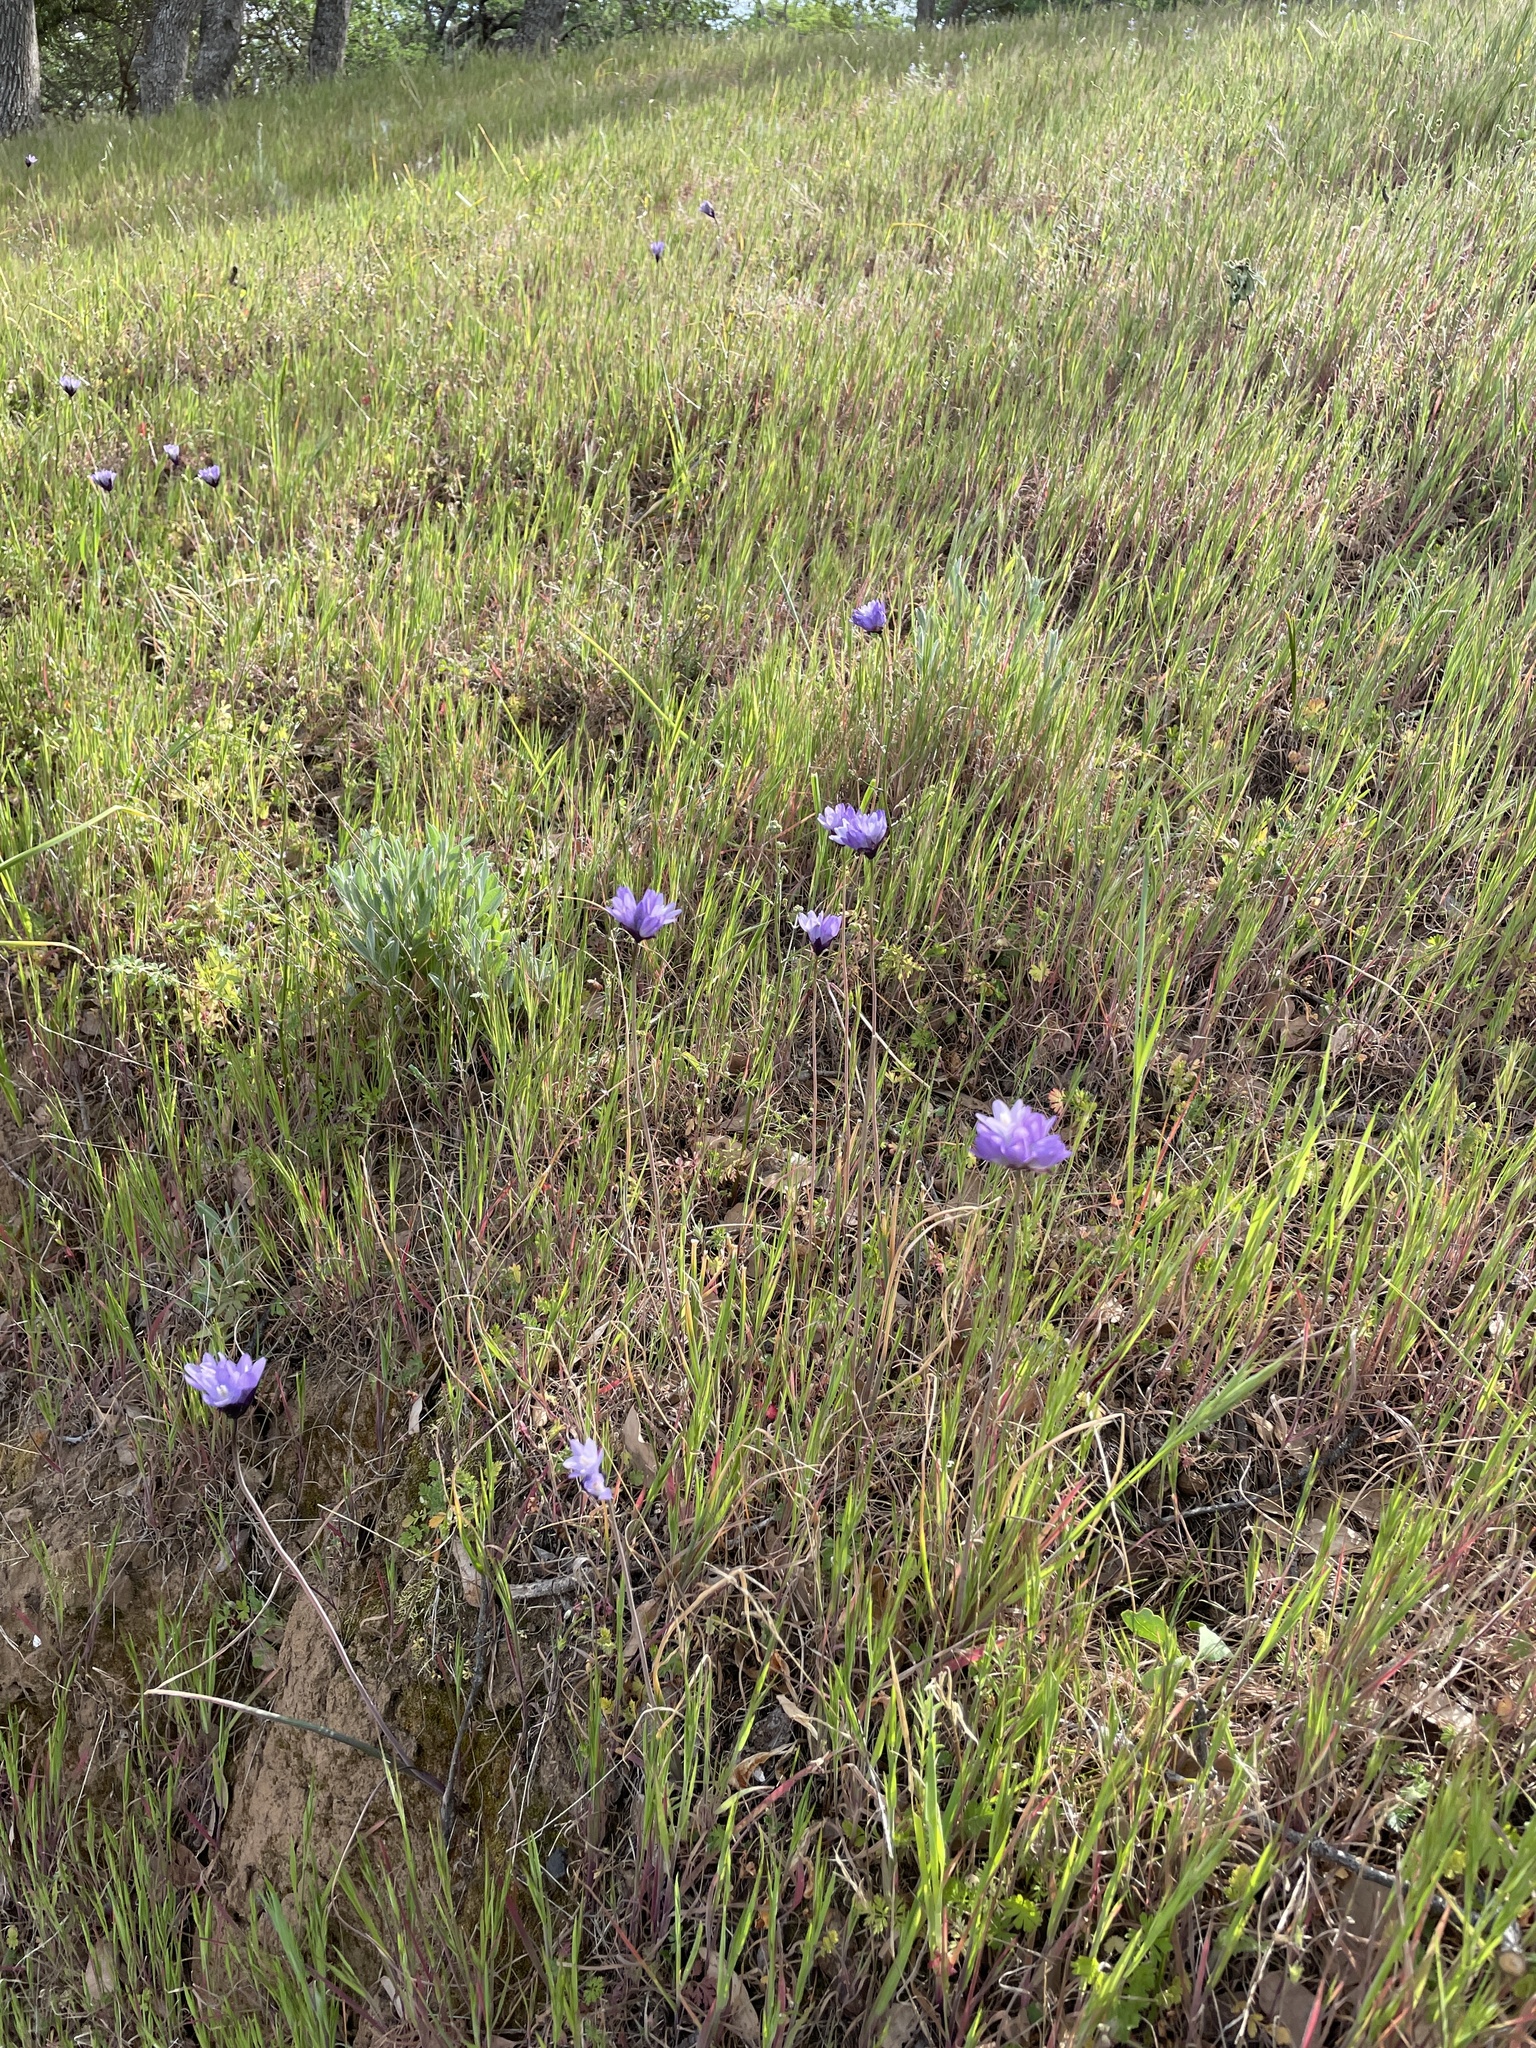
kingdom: Plantae
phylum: Tracheophyta
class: Liliopsida
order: Asparagales
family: Asparagaceae
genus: Dipterostemon
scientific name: Dipterostemon capitatus
